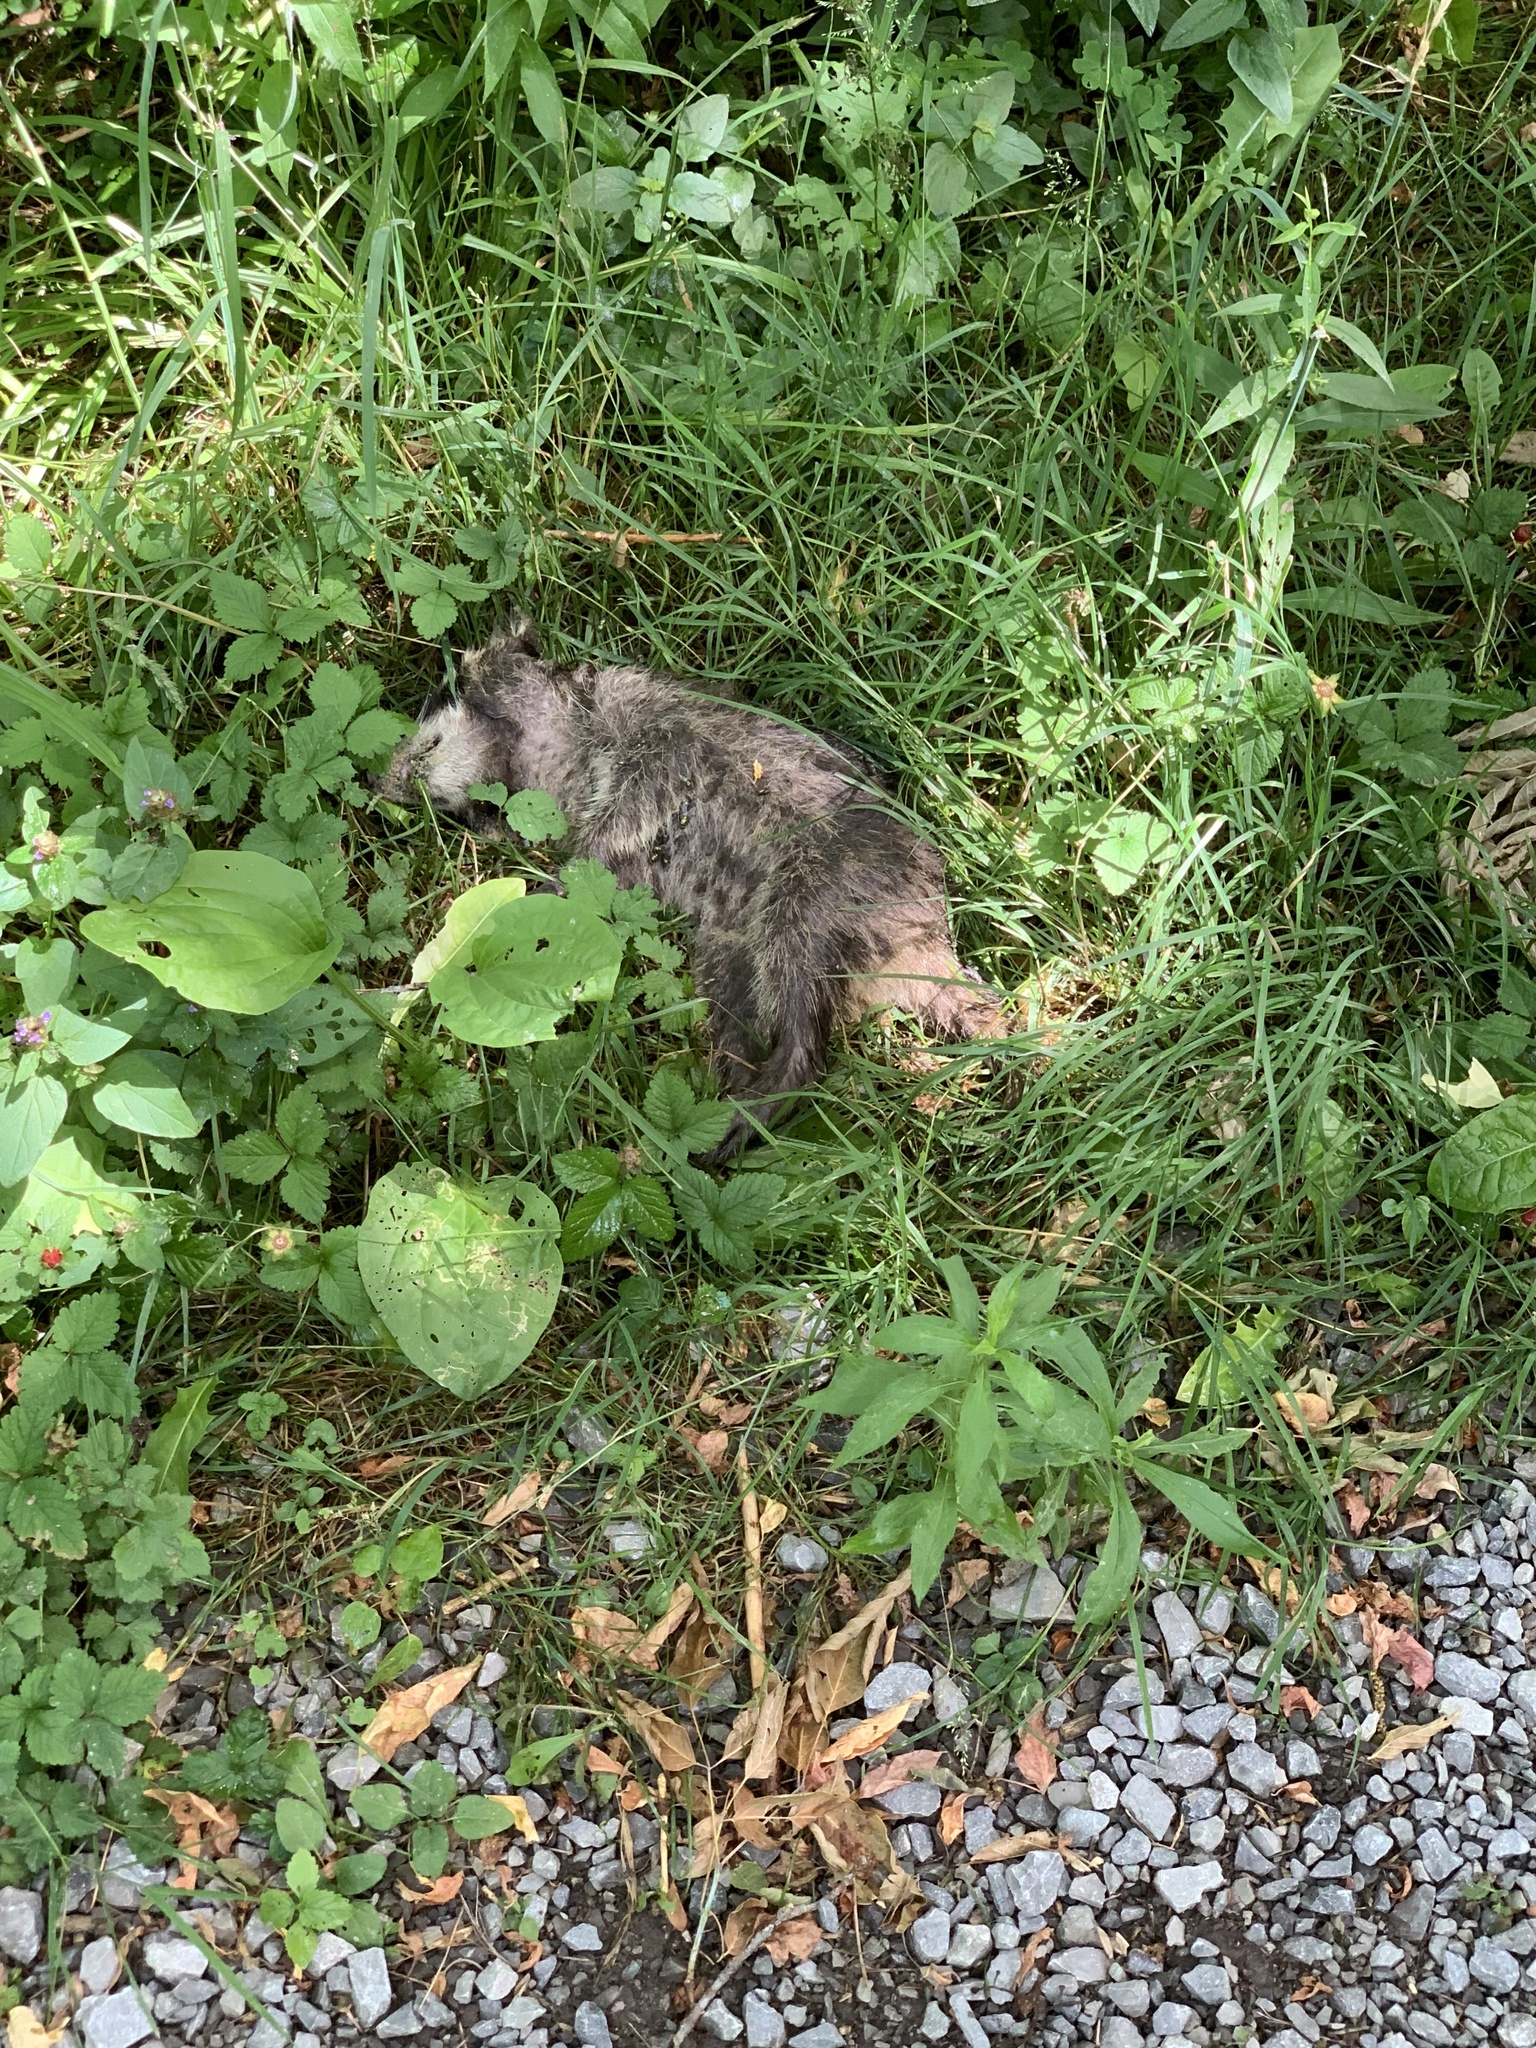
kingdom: Animalia
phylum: Chordata
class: Mammalia
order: Carnivora
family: Procyonidae
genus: Procyon
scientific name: Procyon lotor
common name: Raccoon
